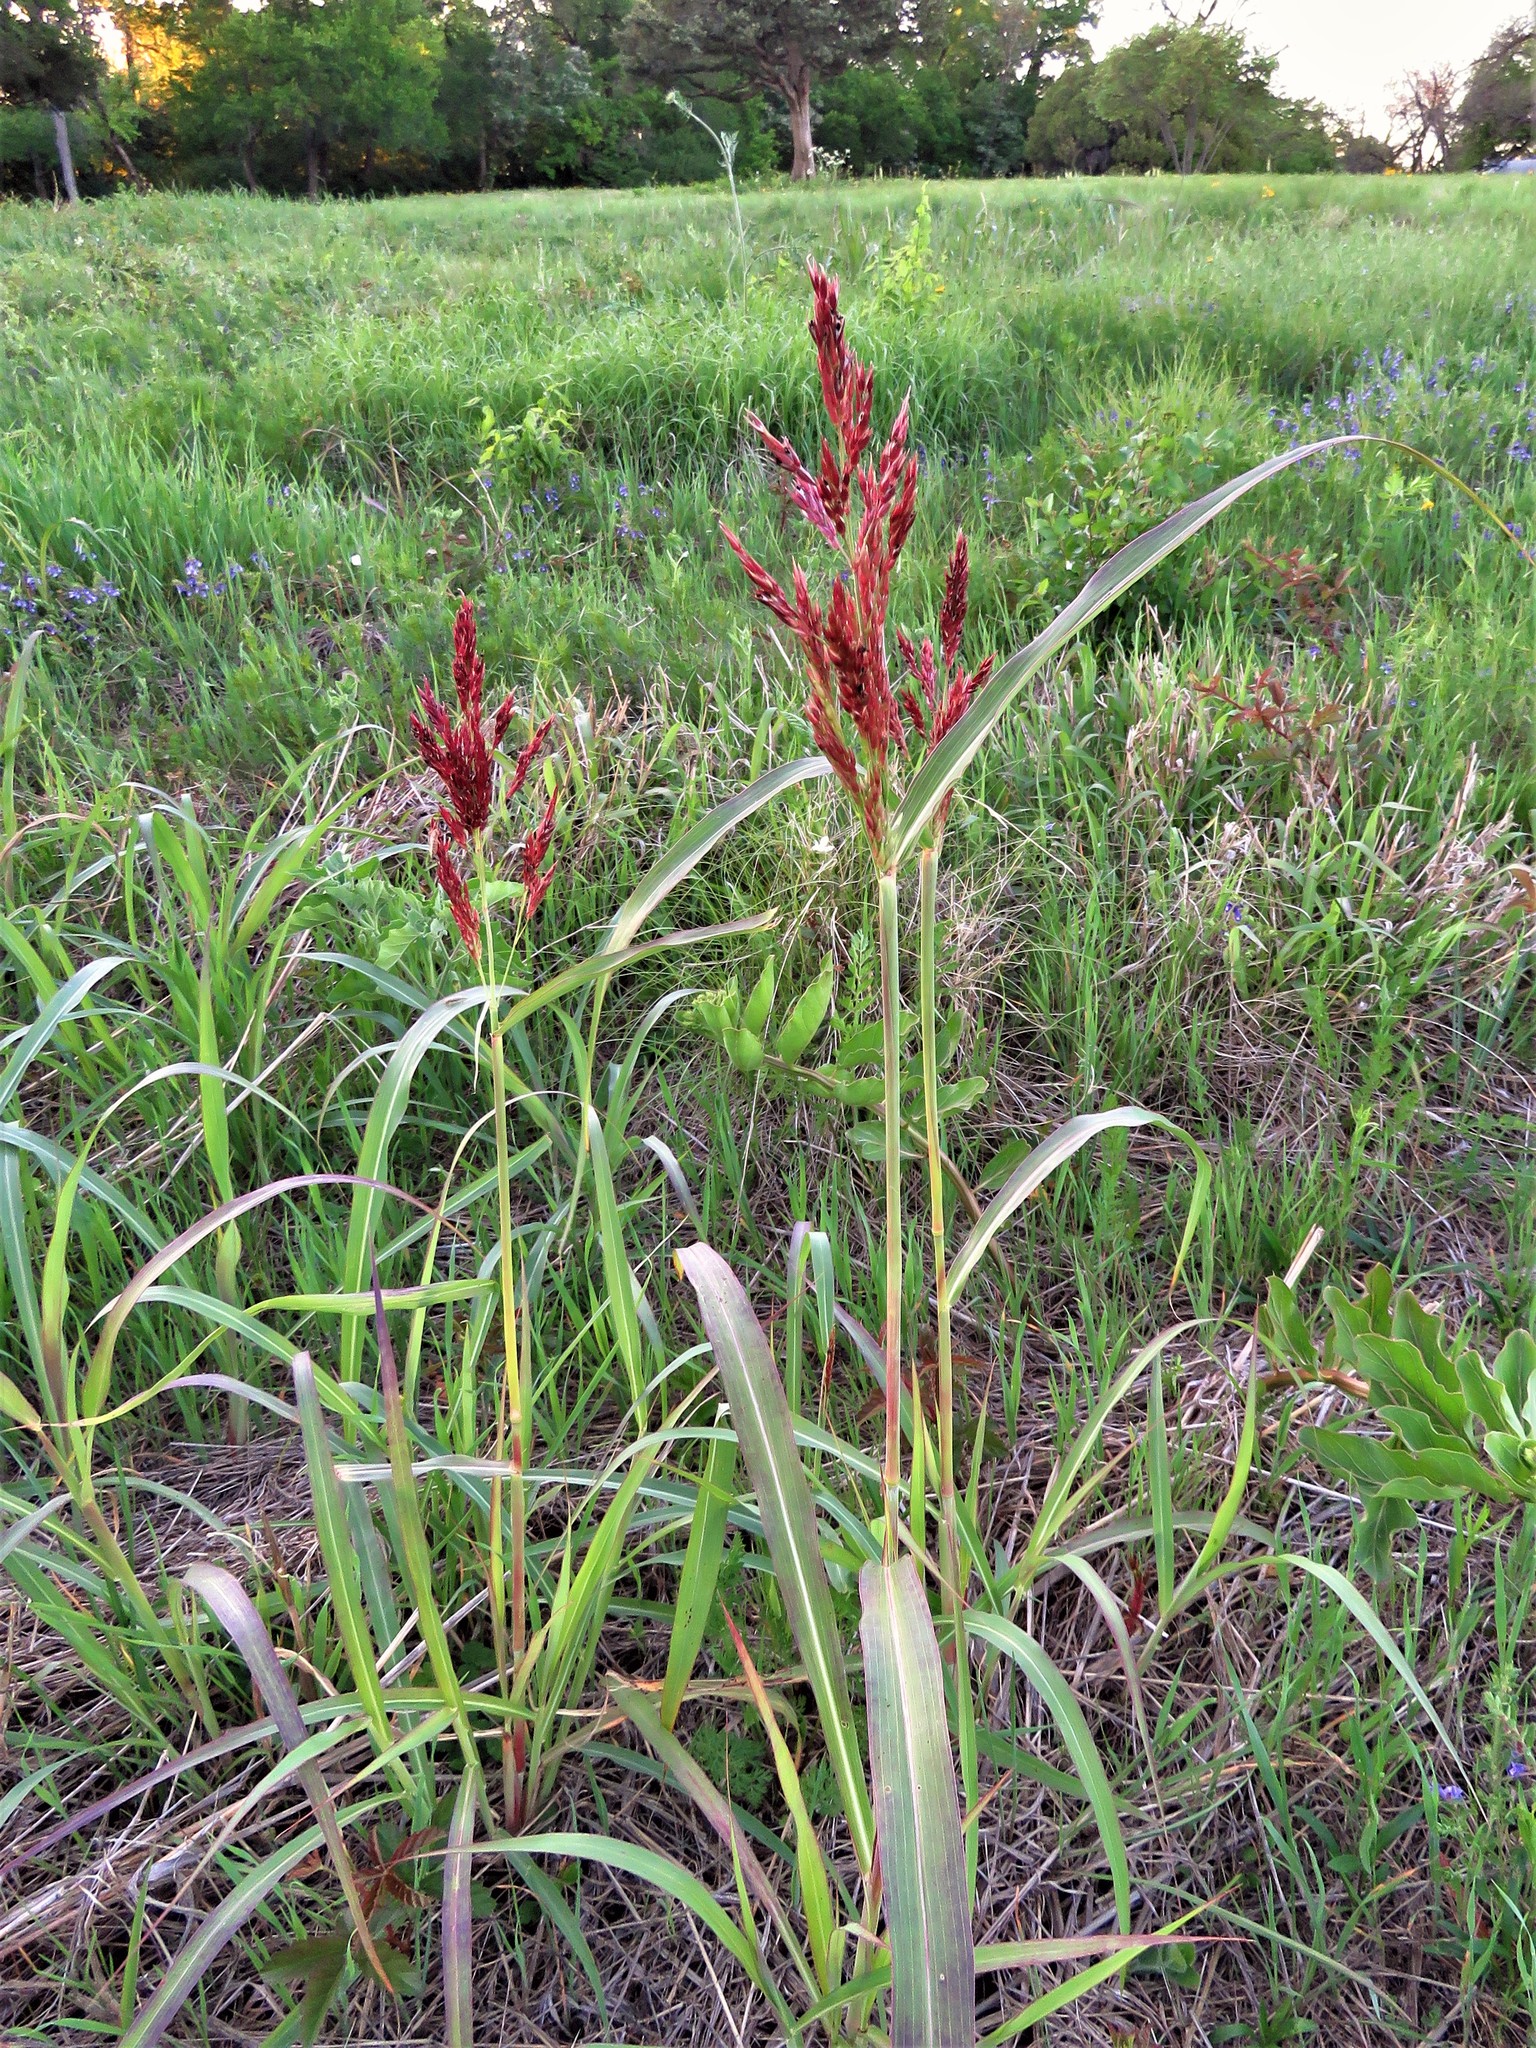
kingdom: Plantae
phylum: Tracheophyta
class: Liliopsida
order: Poales
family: Poaceae
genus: Sorghum
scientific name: Sorghum halepense
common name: Johnson-grass
